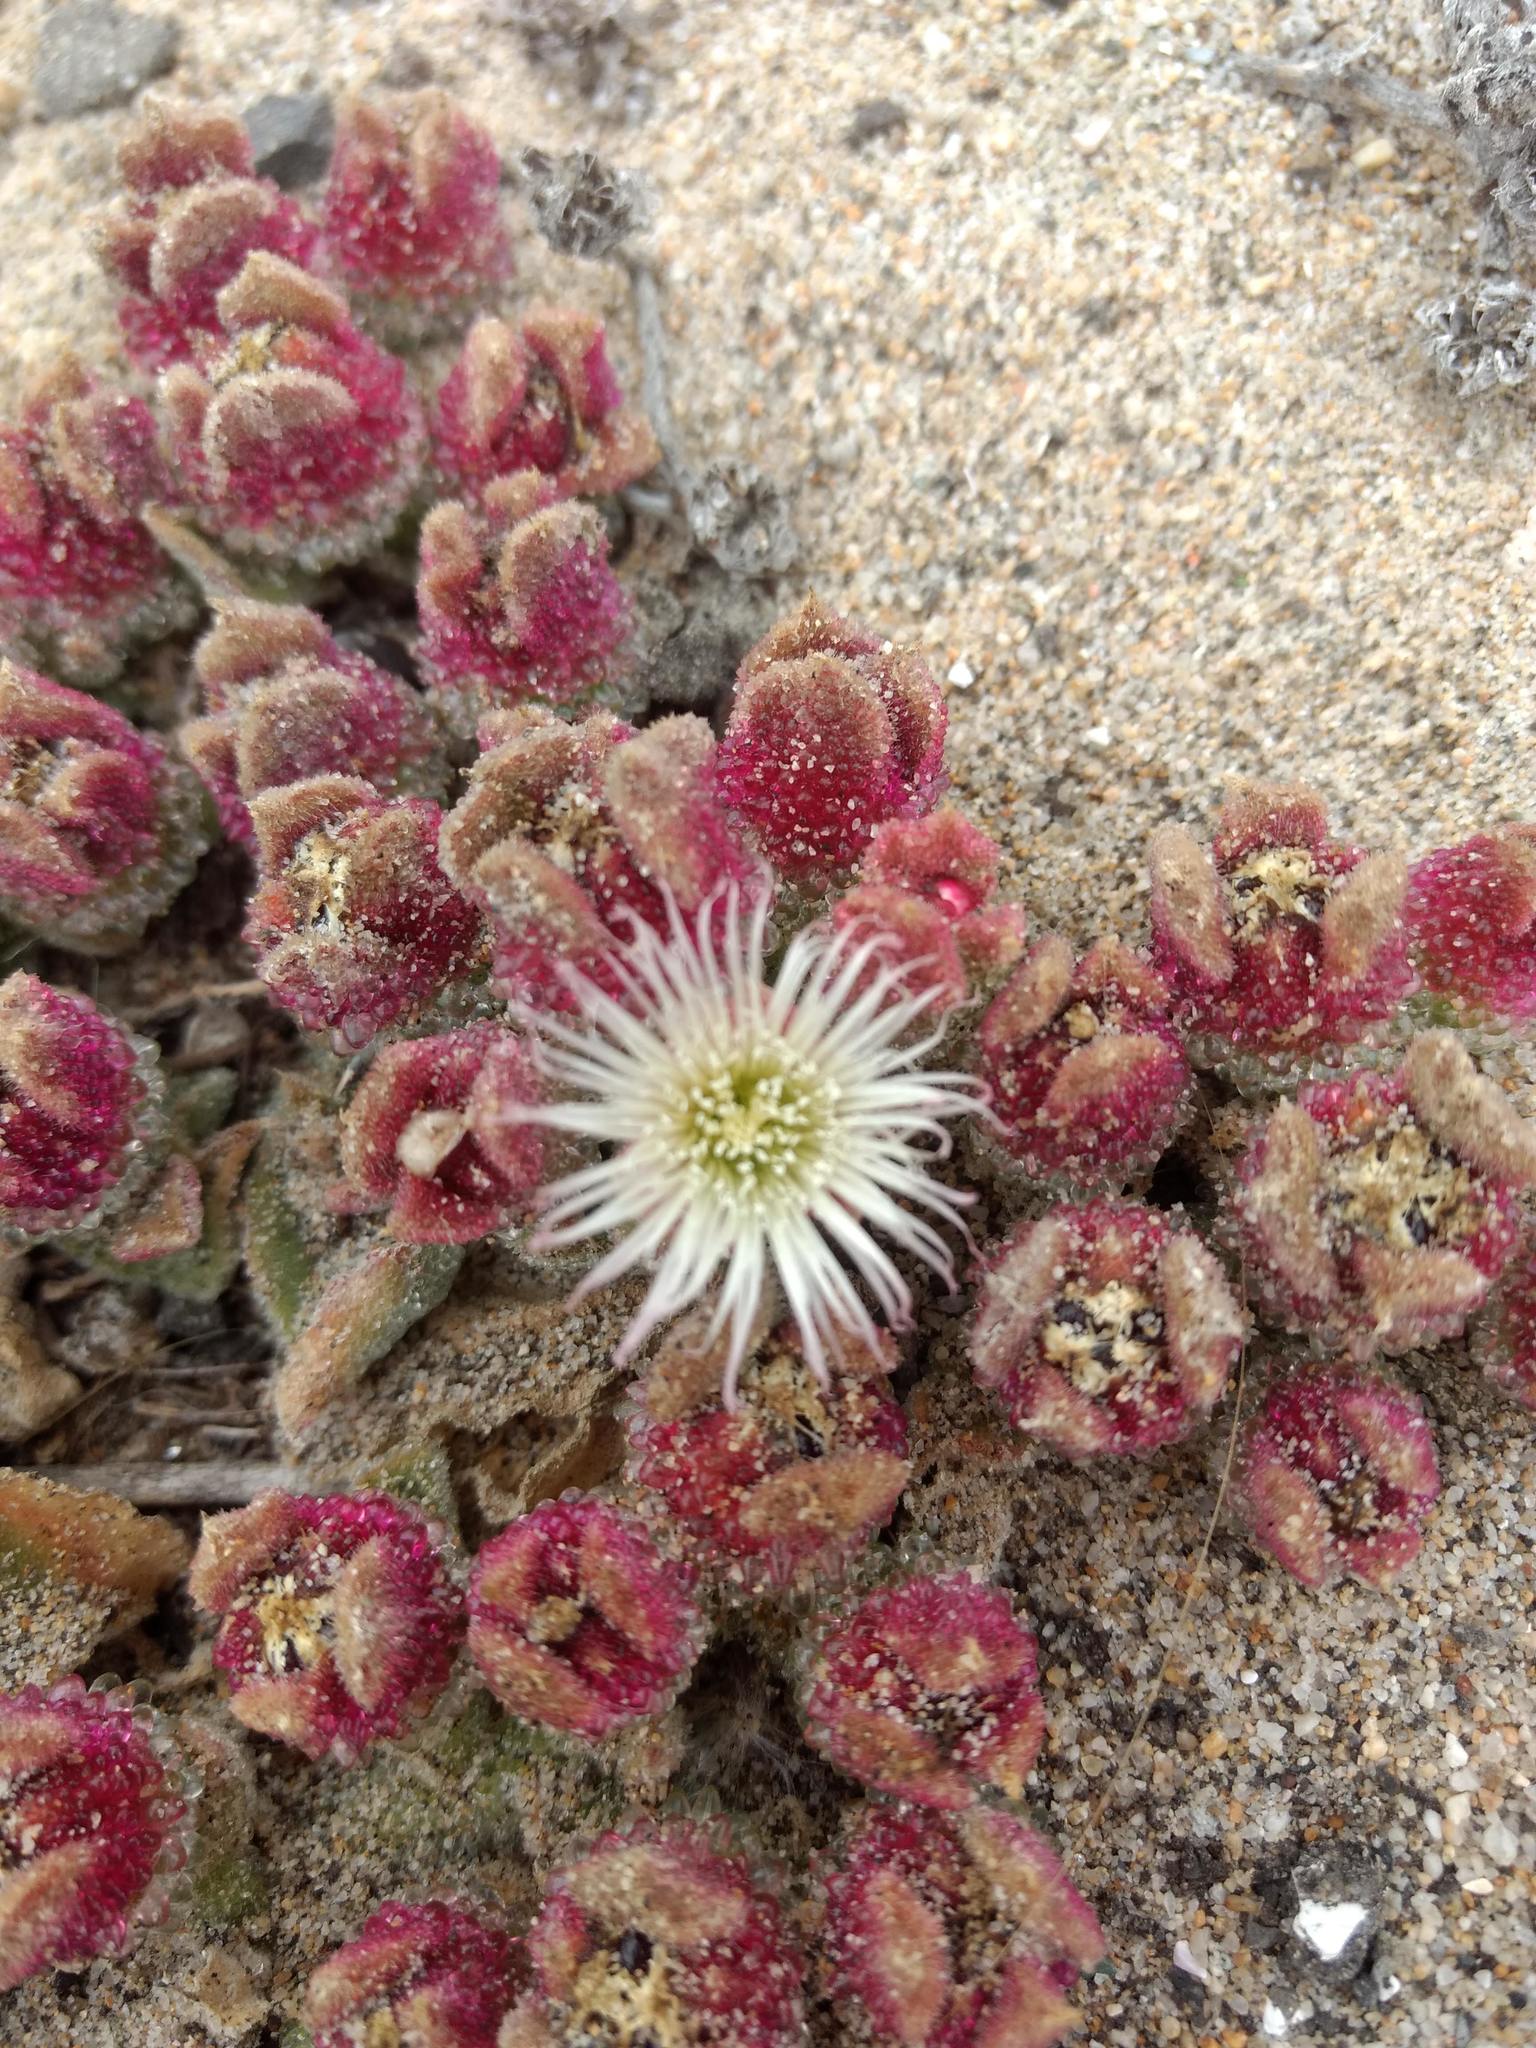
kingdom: Plantae
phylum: Tracheophyta
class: Magnoliopsida
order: Caryophyllales
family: Aizoaceae
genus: Mesembryanthemum
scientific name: Mesembryanthemum crystallinum
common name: Common iceplant
